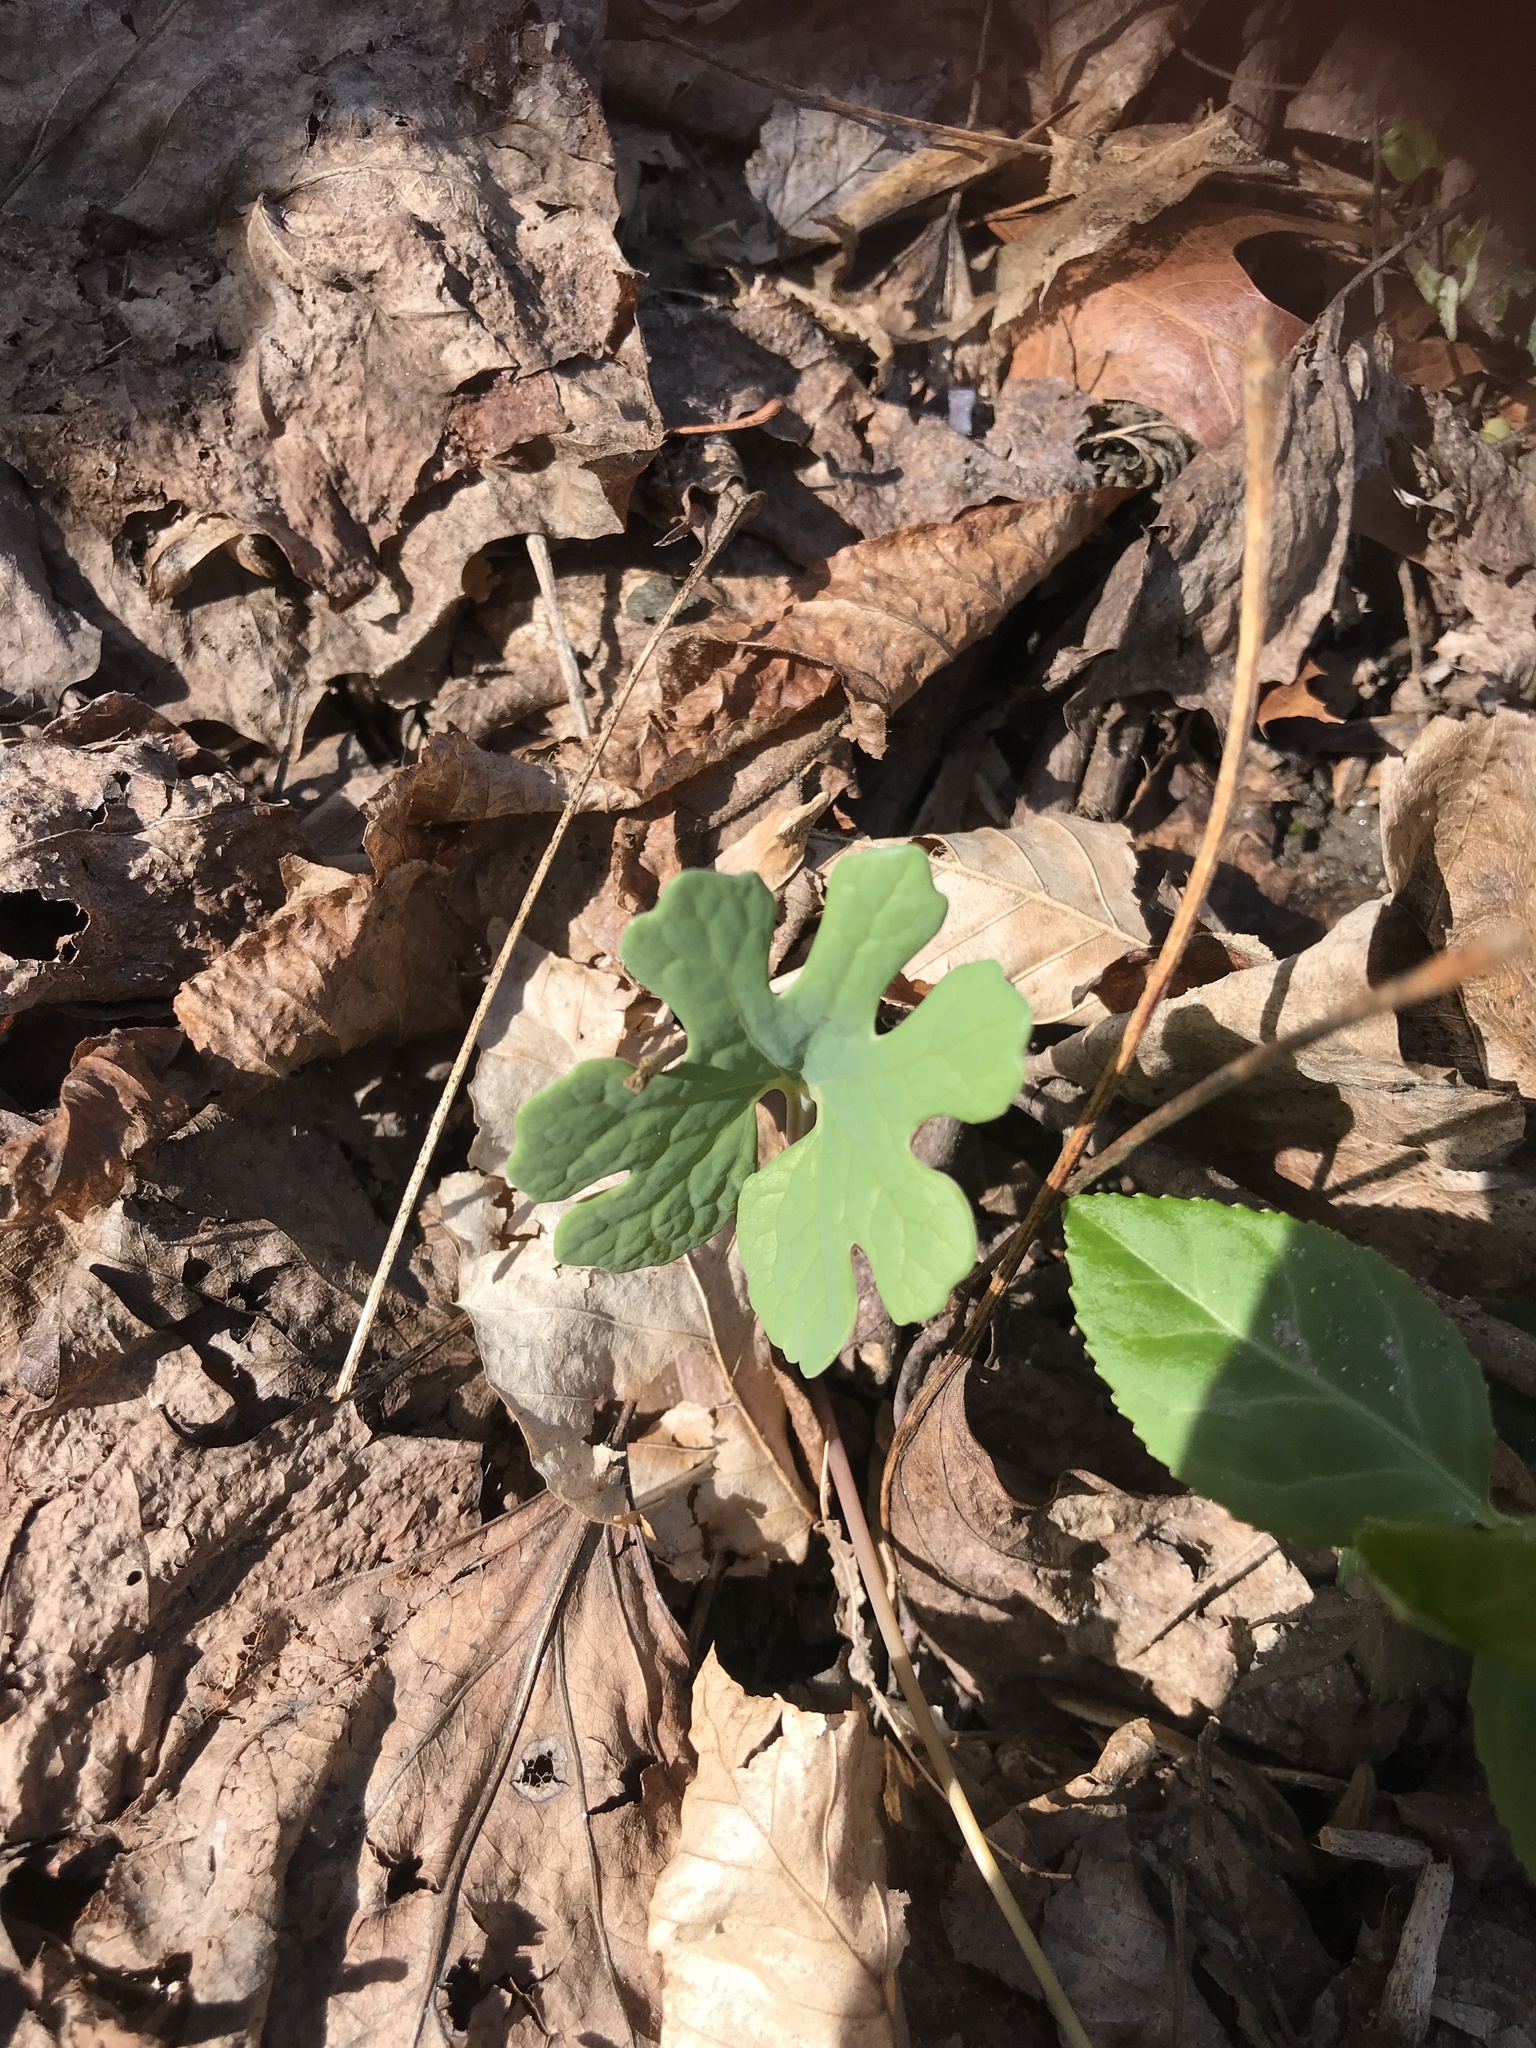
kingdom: Plantae
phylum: Tracheophyta
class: Magnoliopsida
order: Ranunculales
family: Papaveraceae
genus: Sanguinaria
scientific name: Sanguinaria canadensis
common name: Bloodroot
